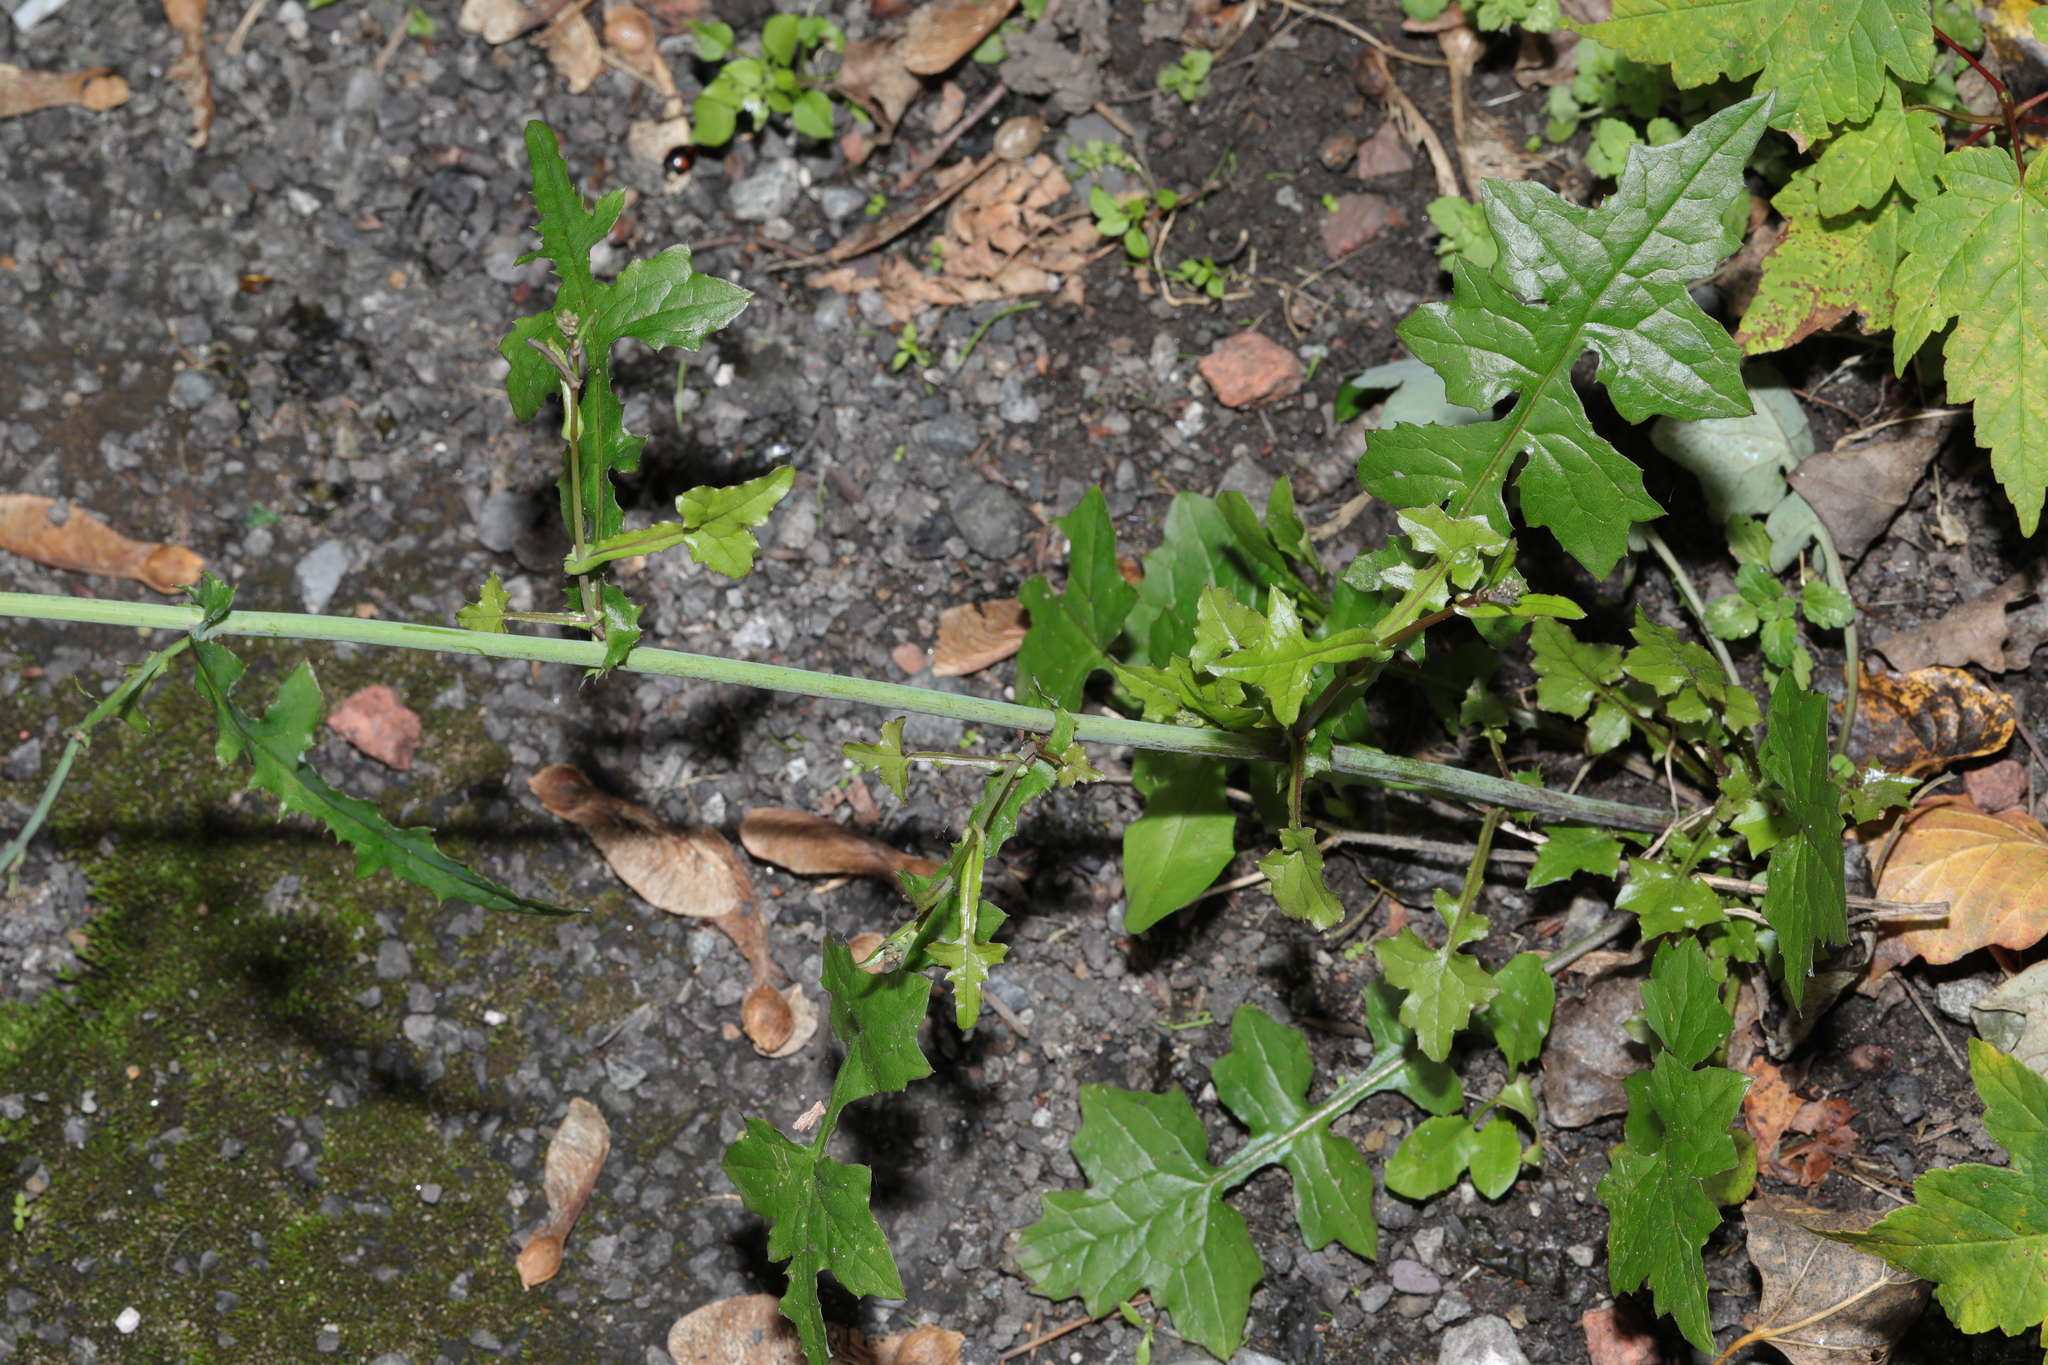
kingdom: Plantae
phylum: Tracheophyta
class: Magnoliopsida
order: Asterales
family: Asteraceae
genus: Mycelis
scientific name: Mycelis muralis
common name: Wall lettuce
